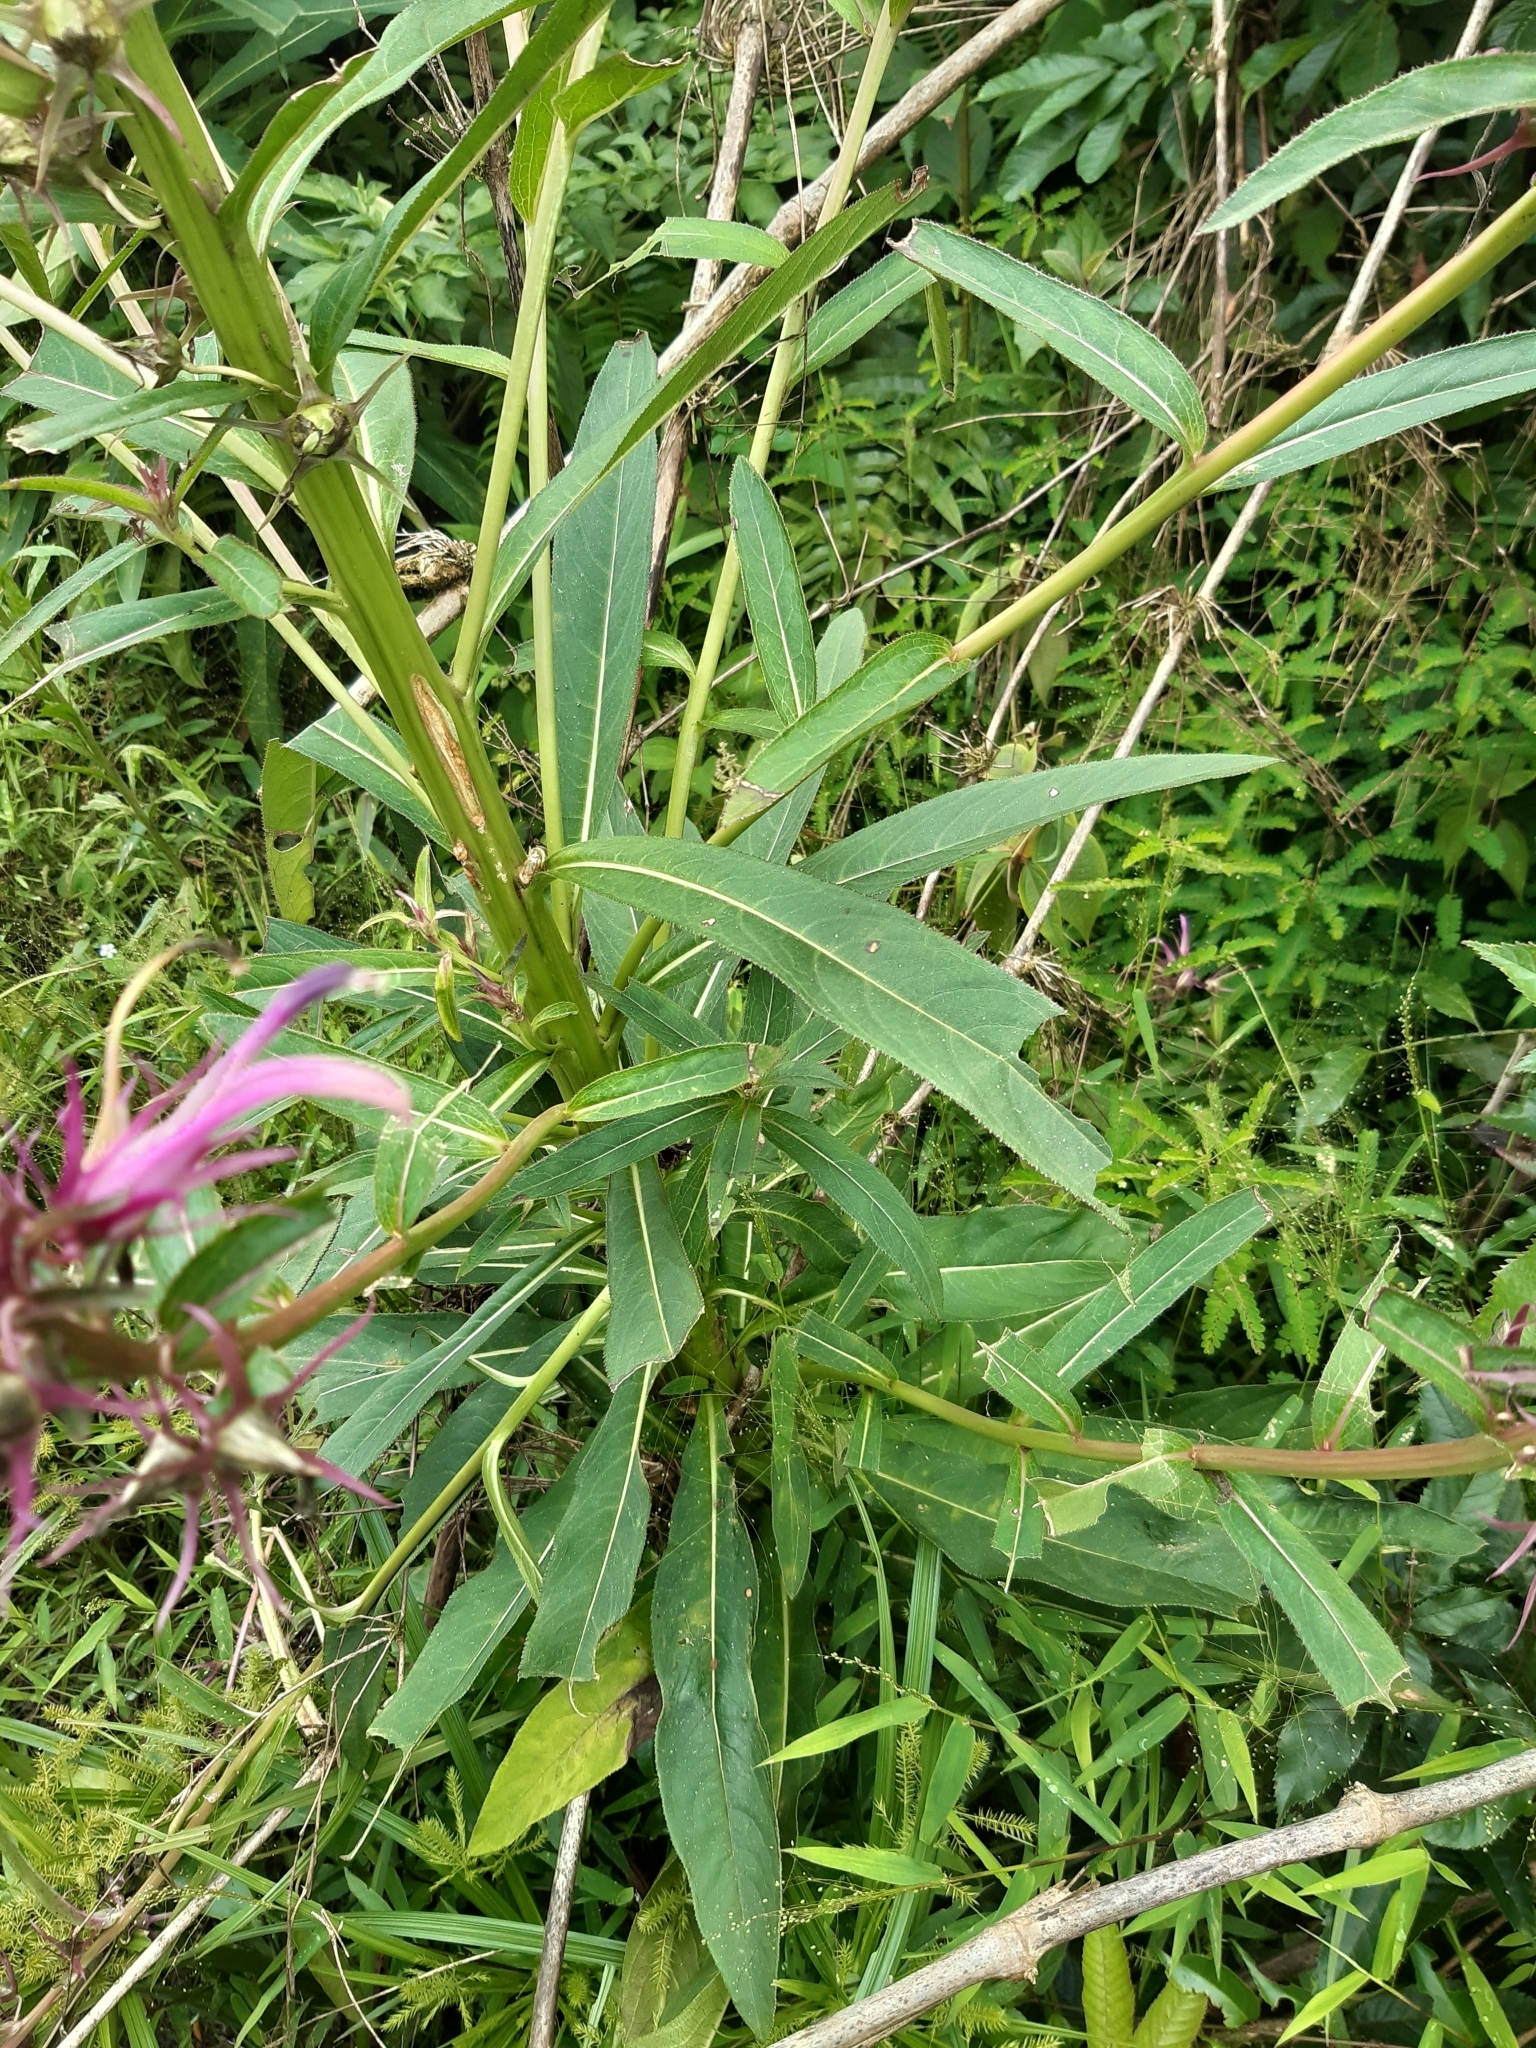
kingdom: Plantae
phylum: Tracheophyta
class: Magnoliopsida
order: Asterales
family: Campanulaceae
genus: Lobelia
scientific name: Lobelia langeana
